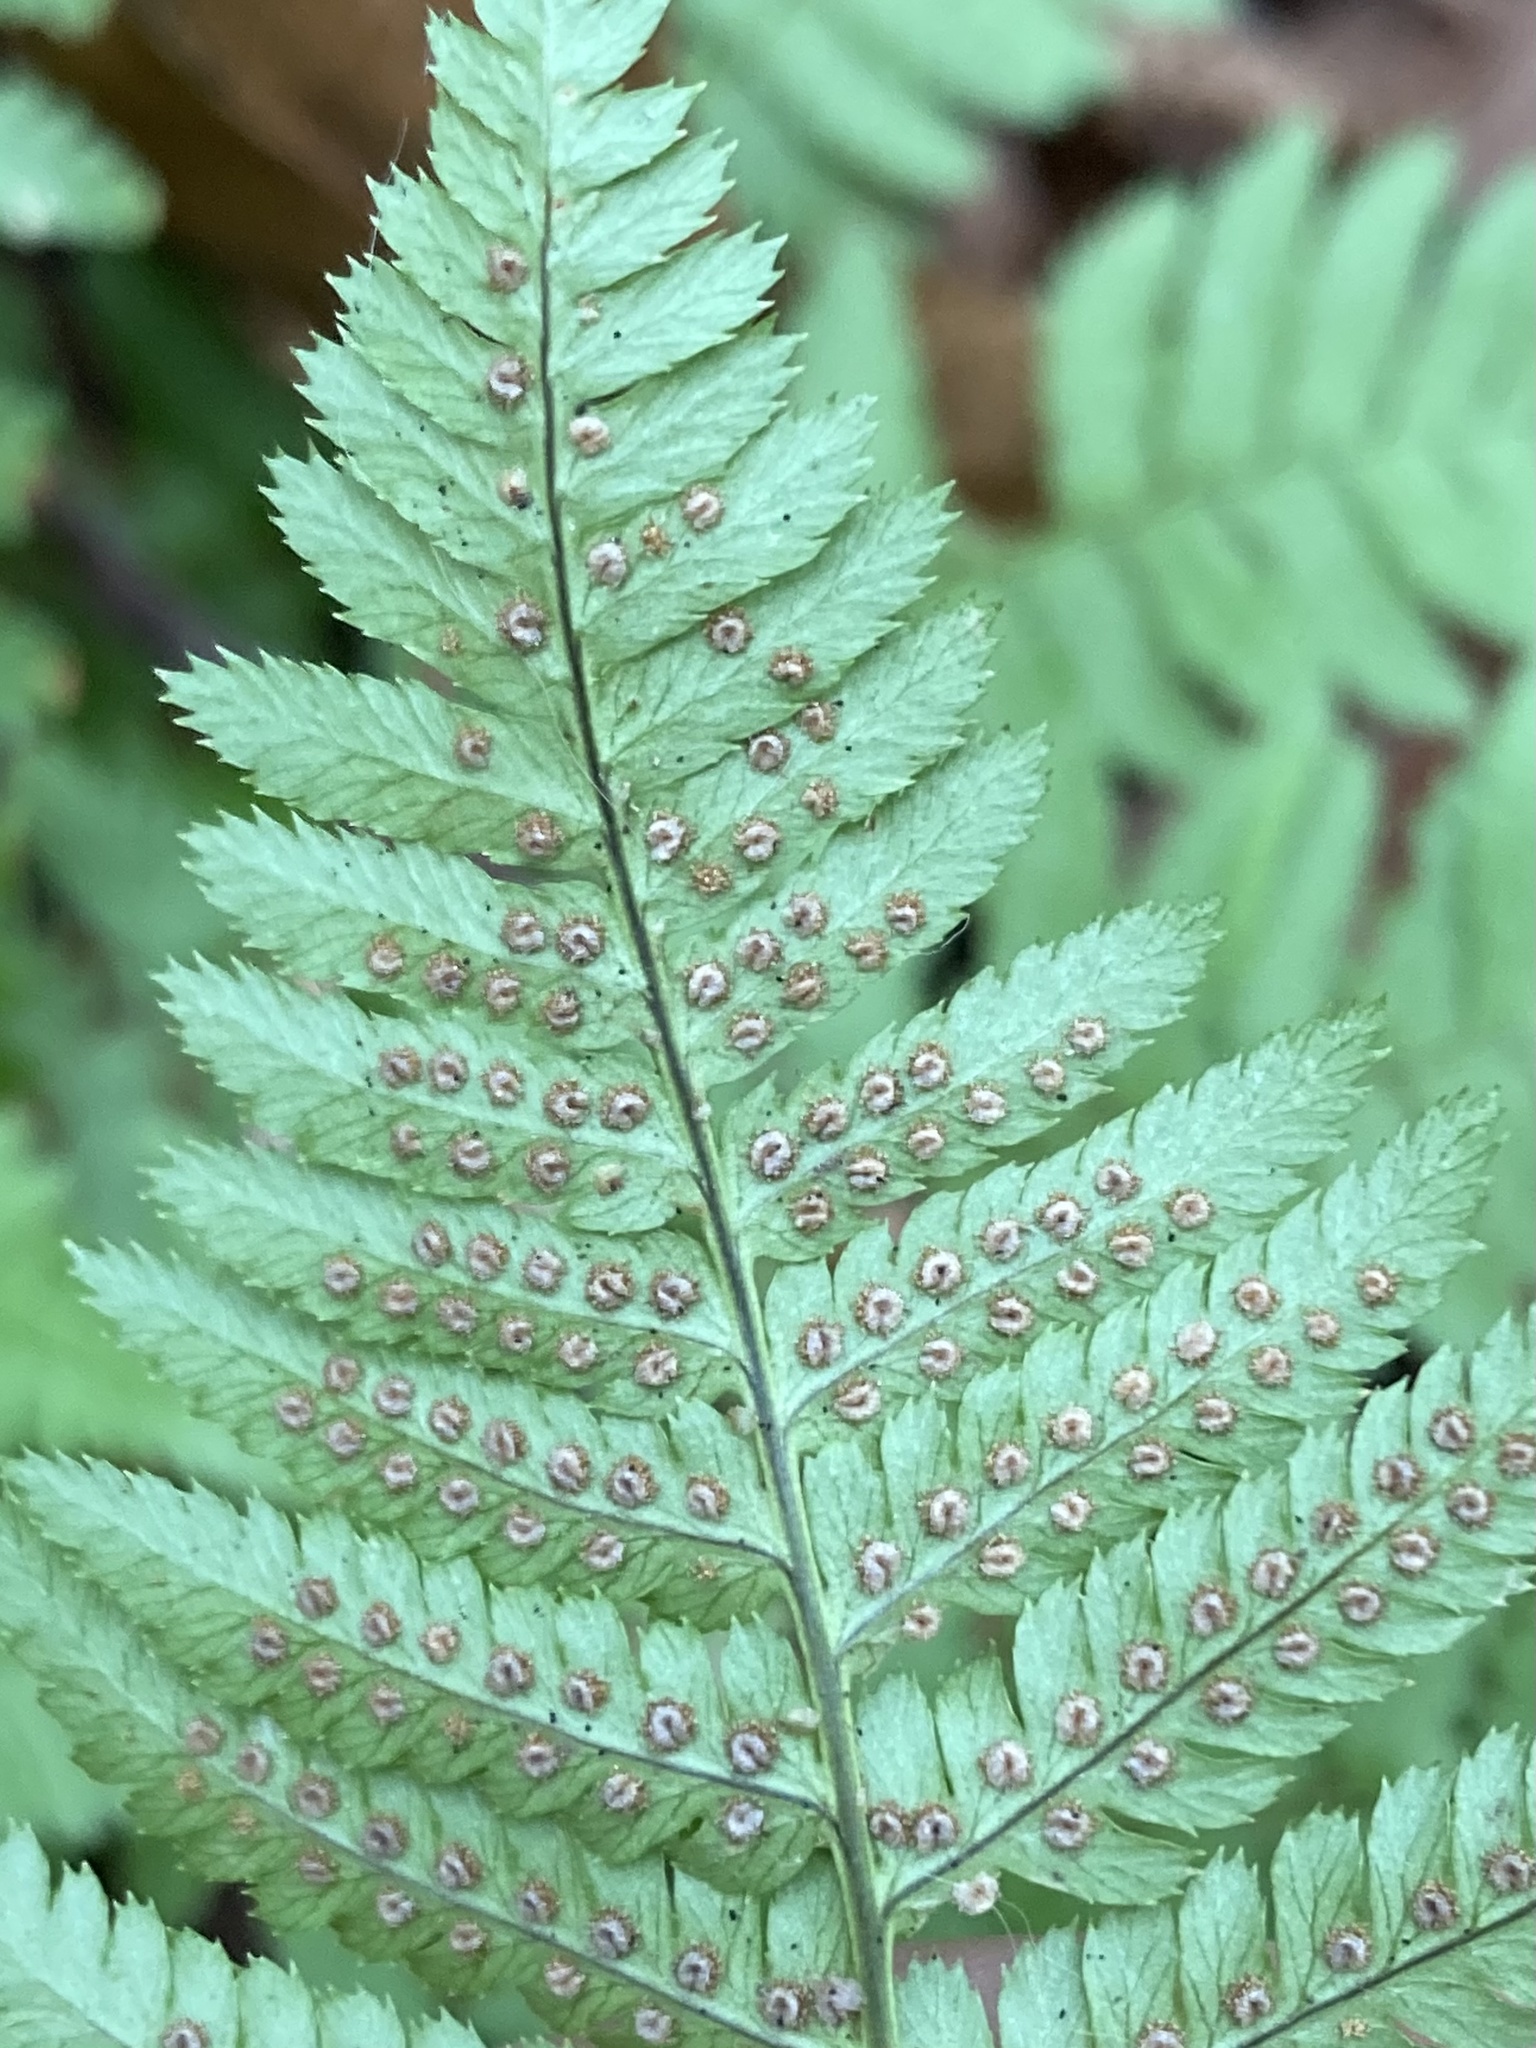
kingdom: Plantae
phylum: Tracheophyta
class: Polypodiopsida
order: Polypodiales
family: Dryopteridaceae
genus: Dryopteris
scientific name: Dryopteris arguta
